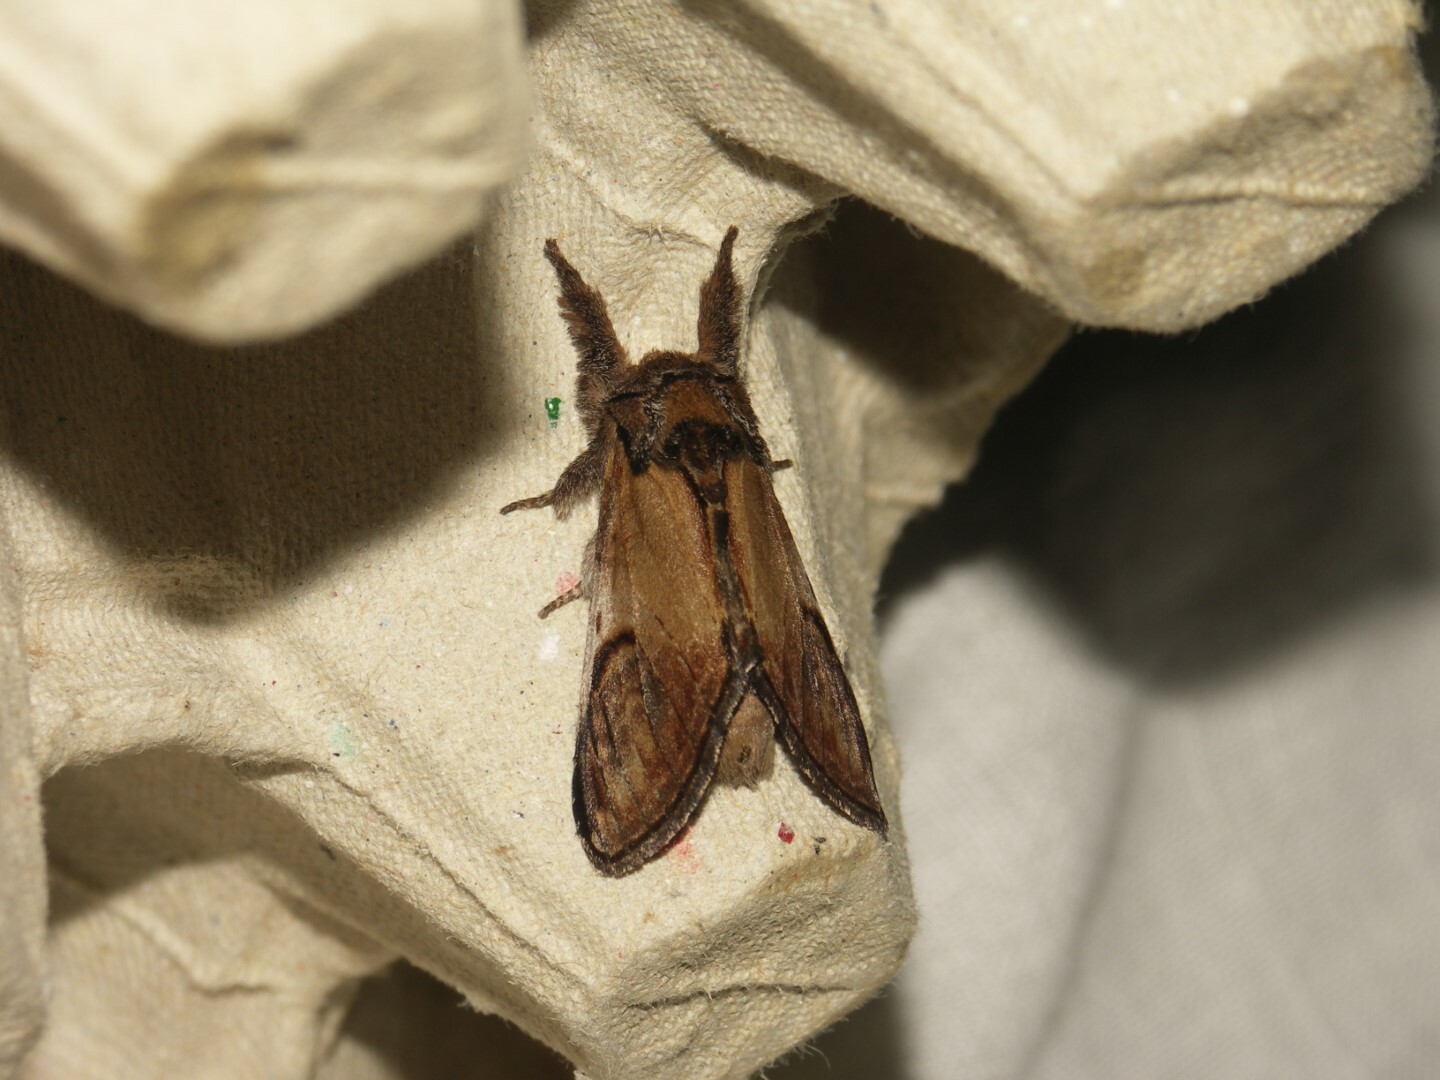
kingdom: Animalia
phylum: Arthropoda
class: Insecta
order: Lepidoptera
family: Notodontidae
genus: Notodonta
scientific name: Notodonta ziczac
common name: Pebble prominent
